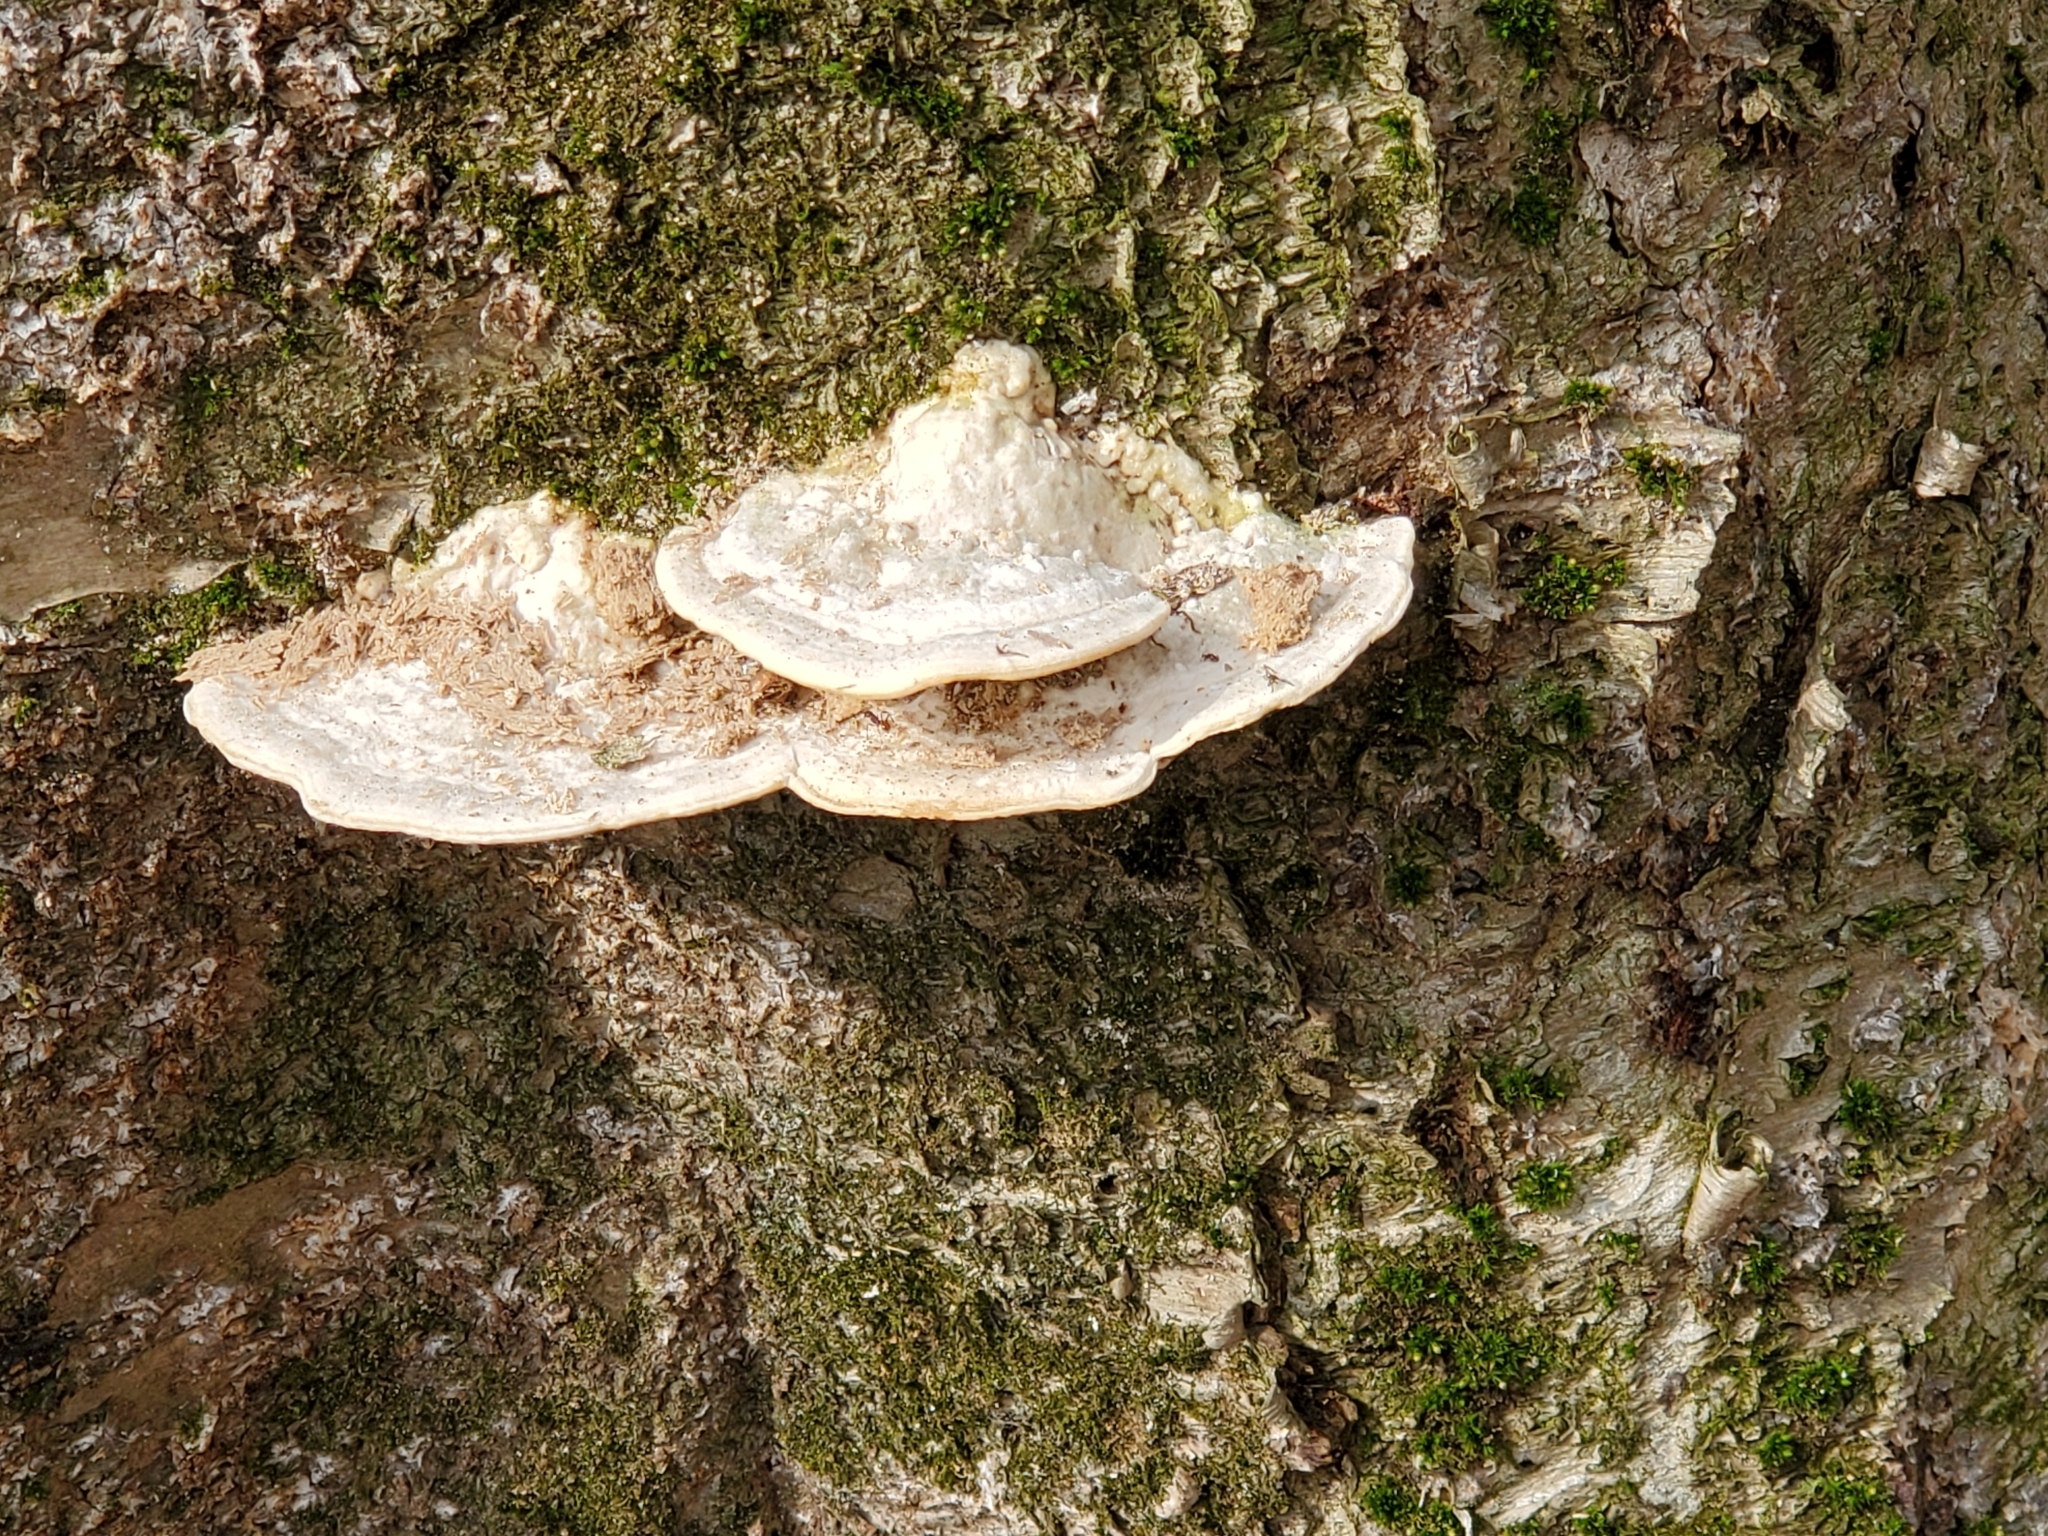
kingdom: Fungi
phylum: Basidiomycota
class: Agaricomycetes
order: Polyporales
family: Polyporaceae
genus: Trametes
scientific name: Trametes gibbosa
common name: Lumpy bracket
